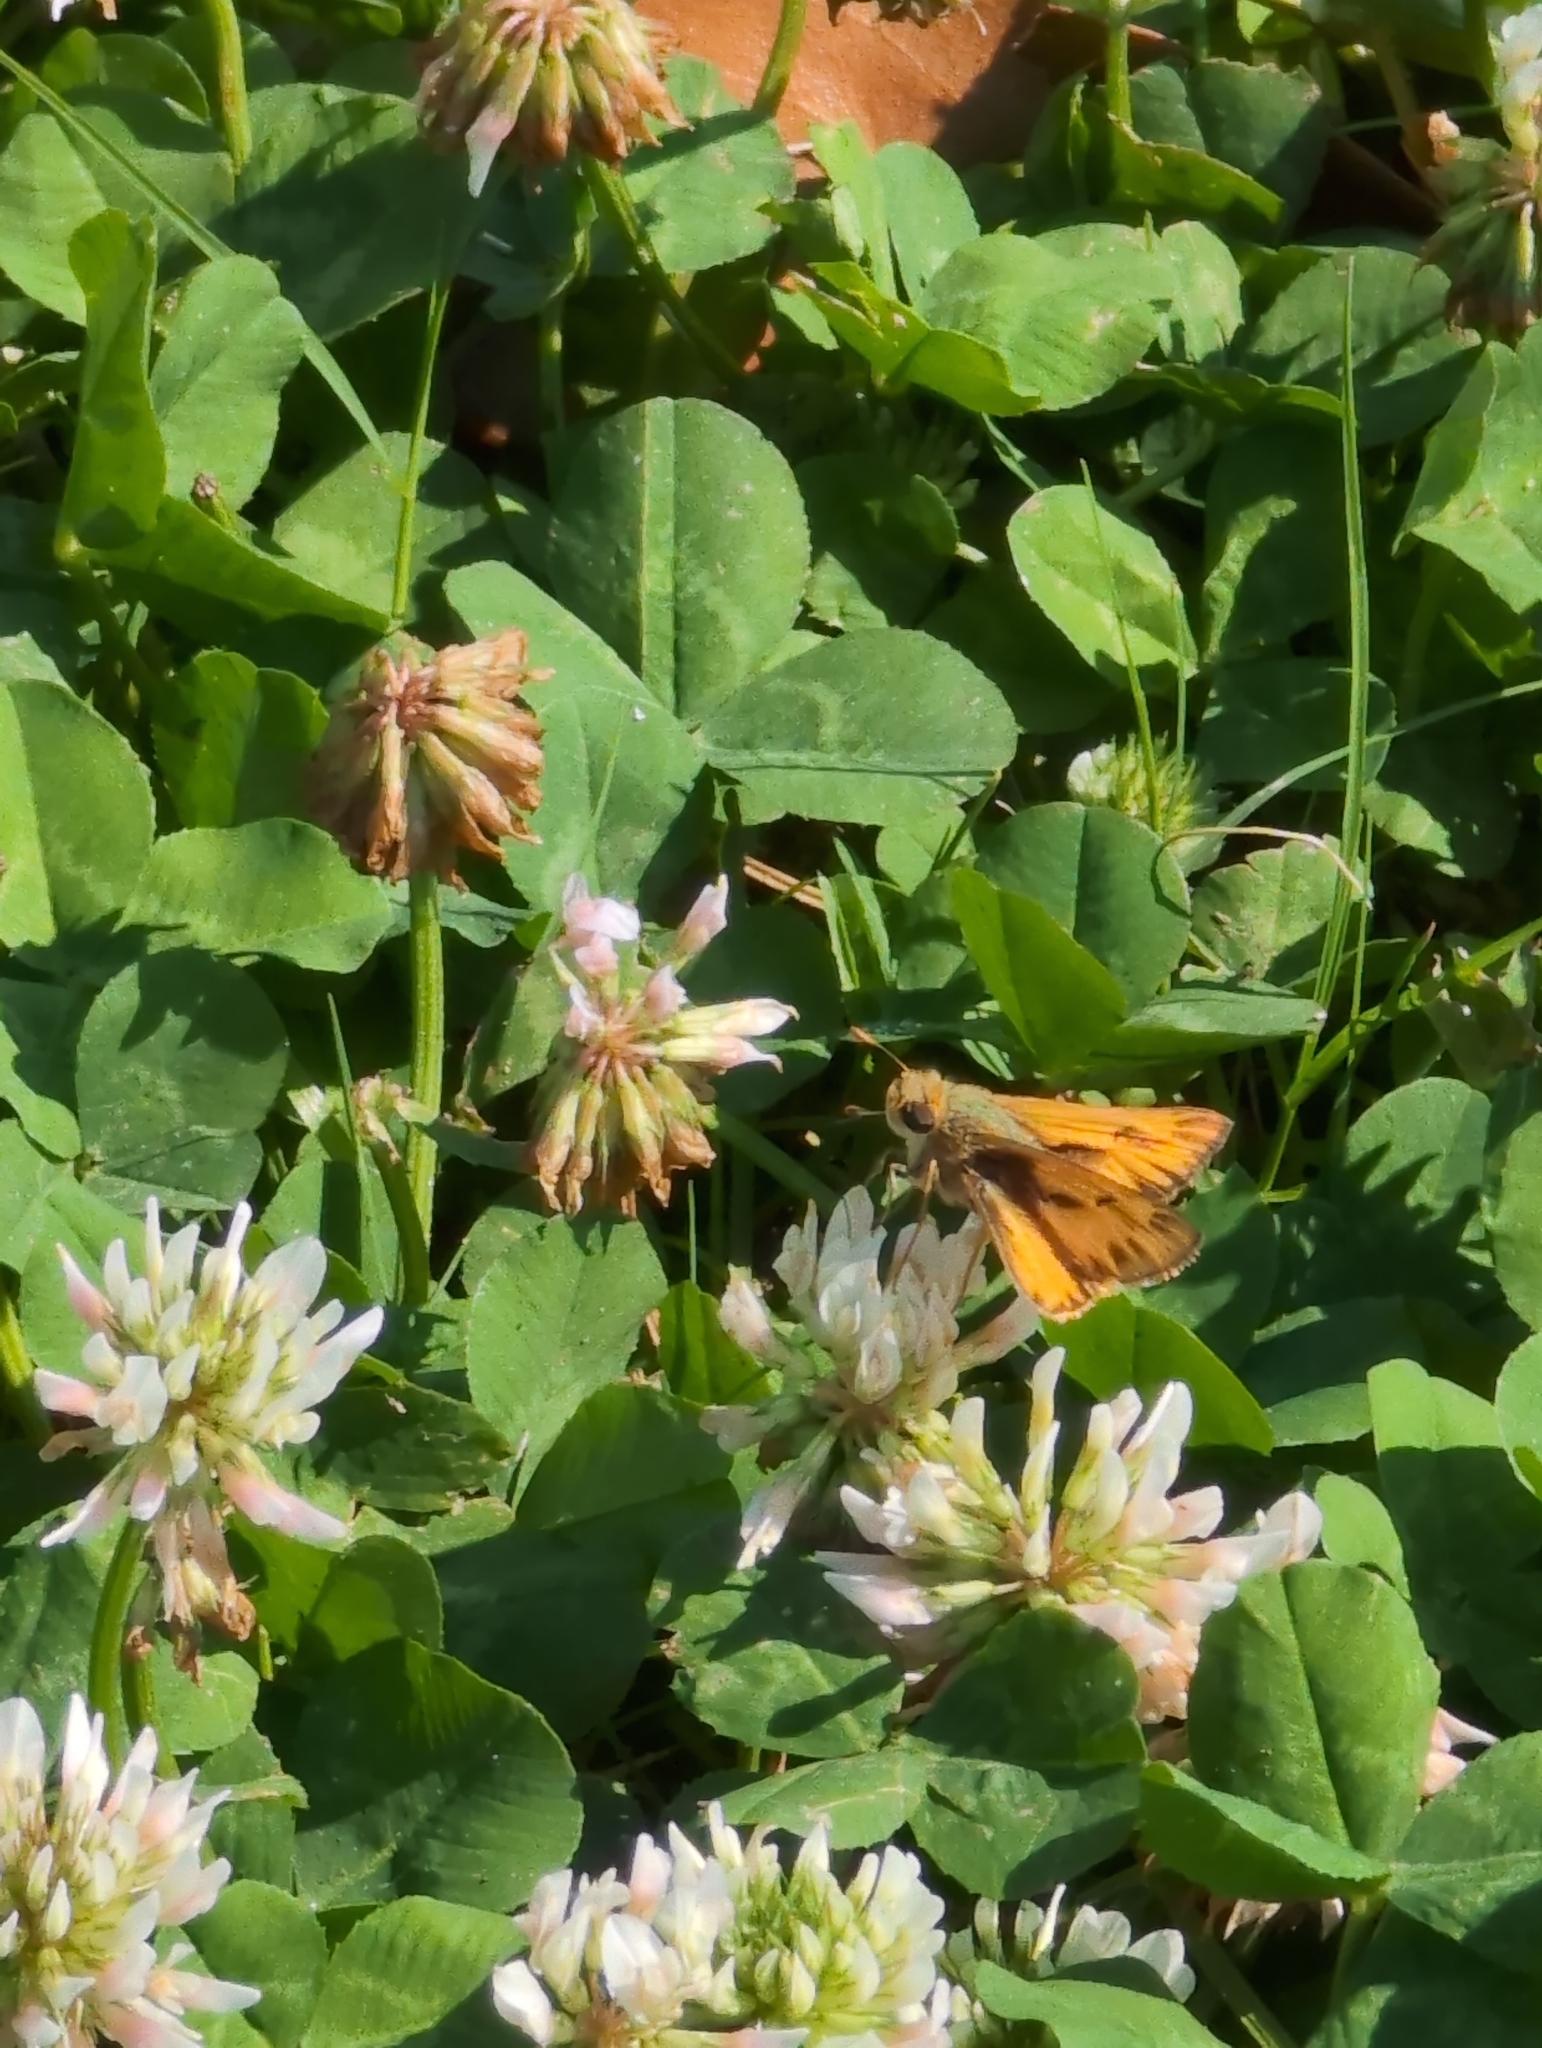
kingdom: Animalia
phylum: Arthropoda
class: Insecta
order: Lepidoptera
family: Hesperiidae
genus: Hylephila
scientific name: Hylephila phyleus
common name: Fiery skipper
